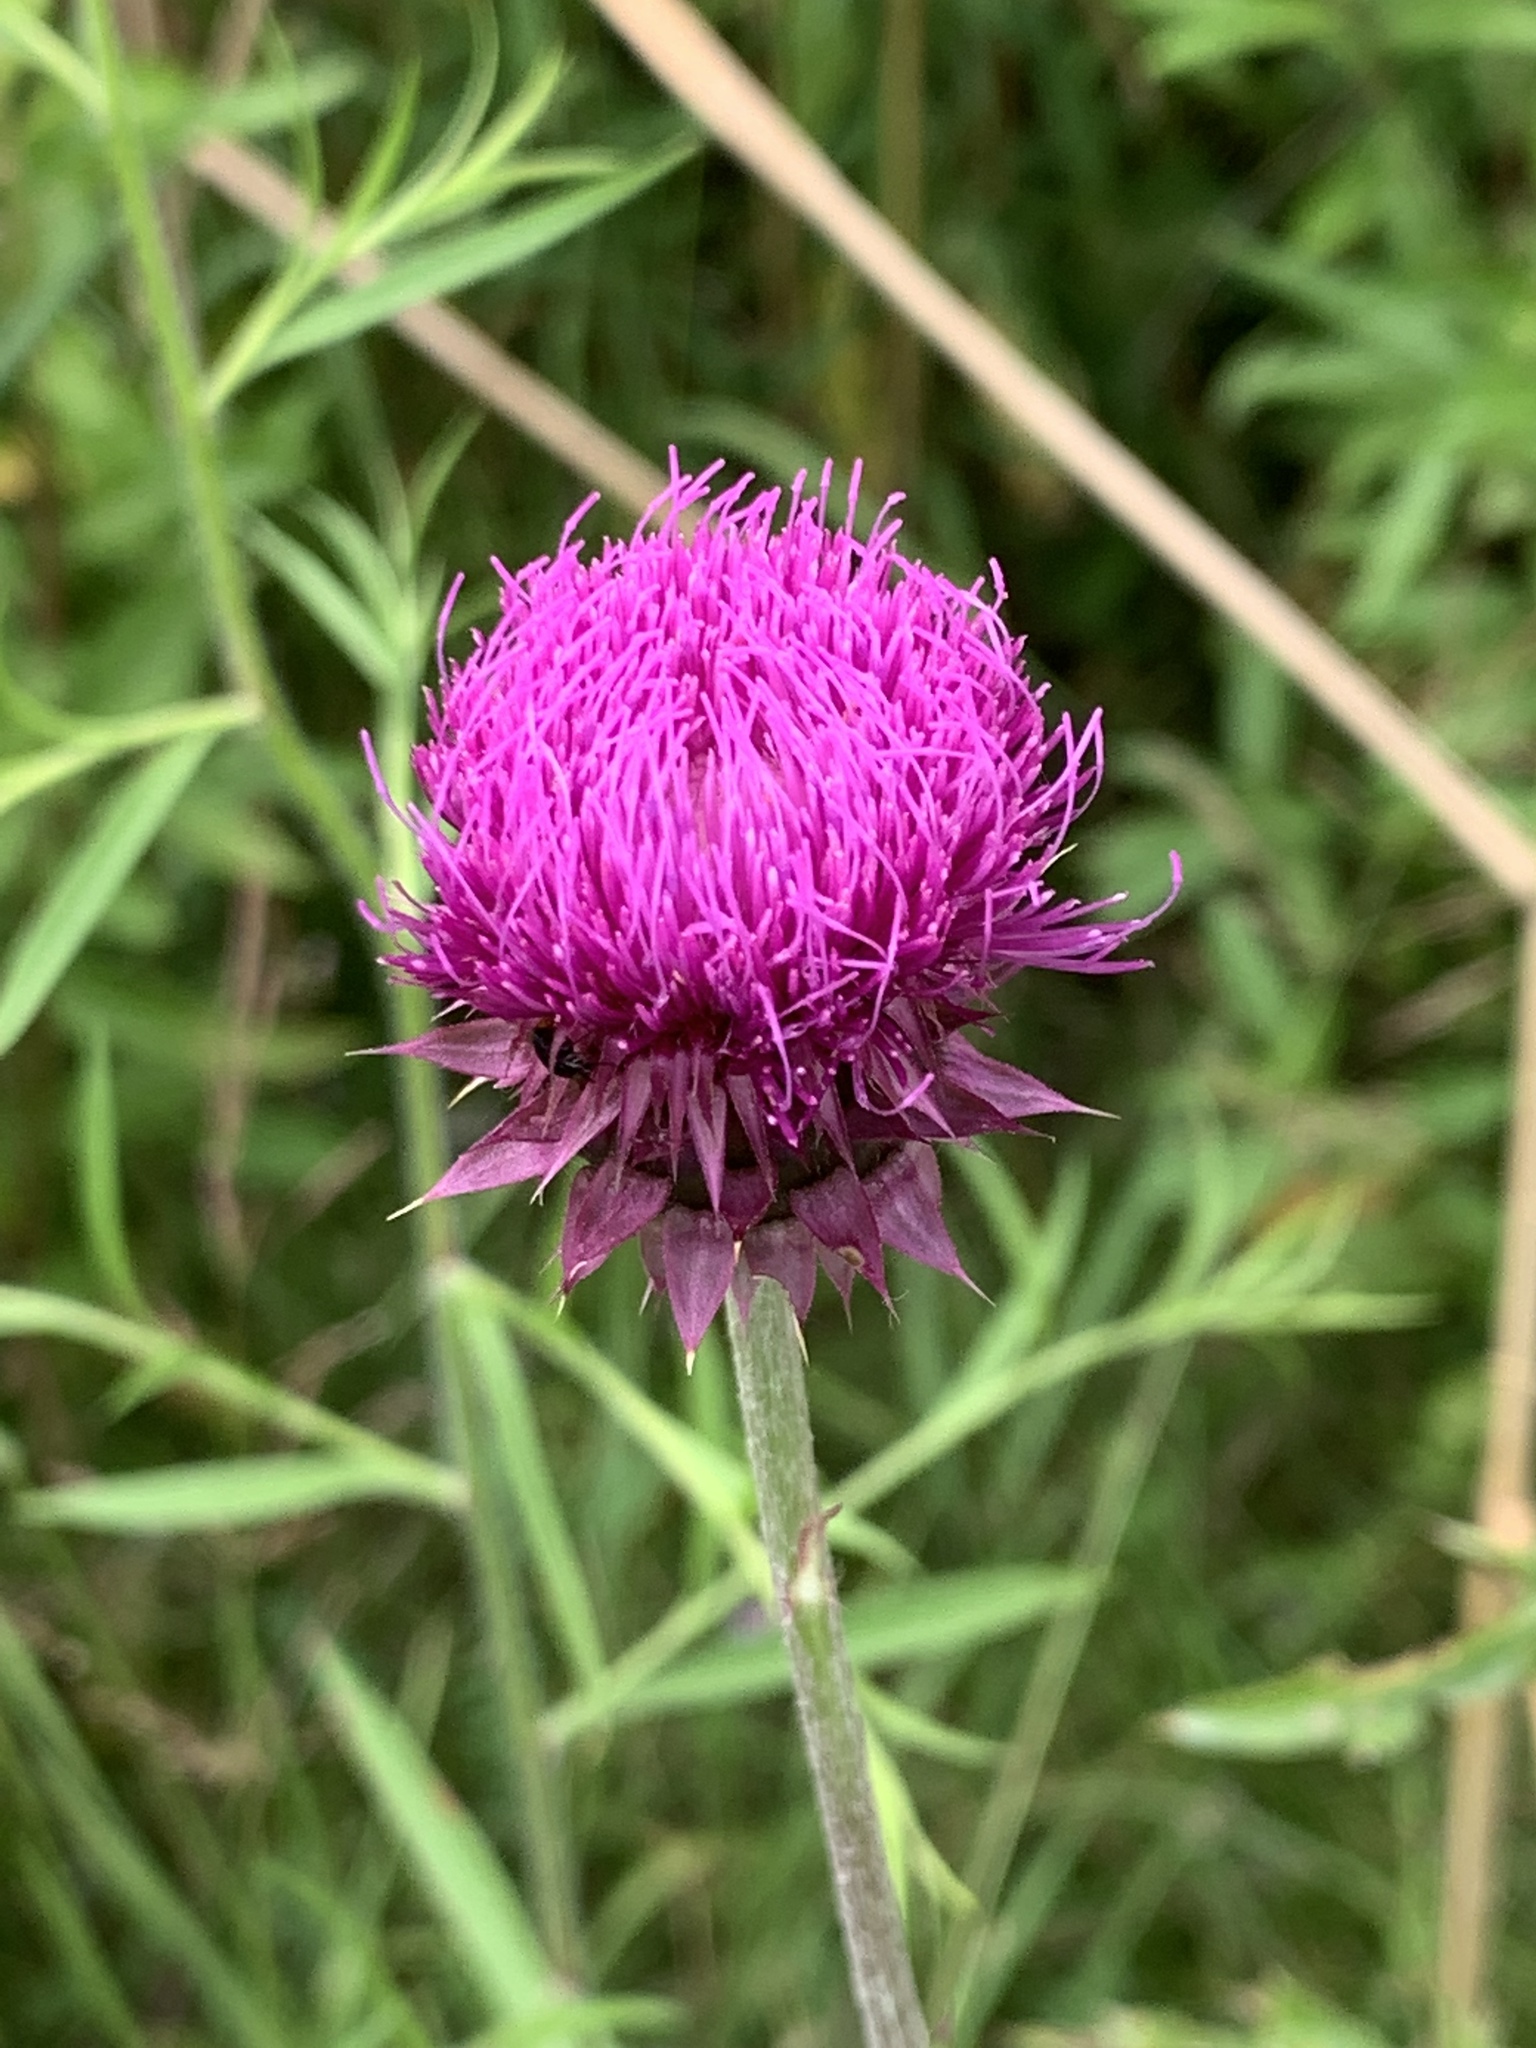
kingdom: Plantae
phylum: Tracheophyta
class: Magnoliopsida
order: Asterales
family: Asteraceae
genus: Carduus
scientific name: Carduus nutans
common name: Musk thistle
